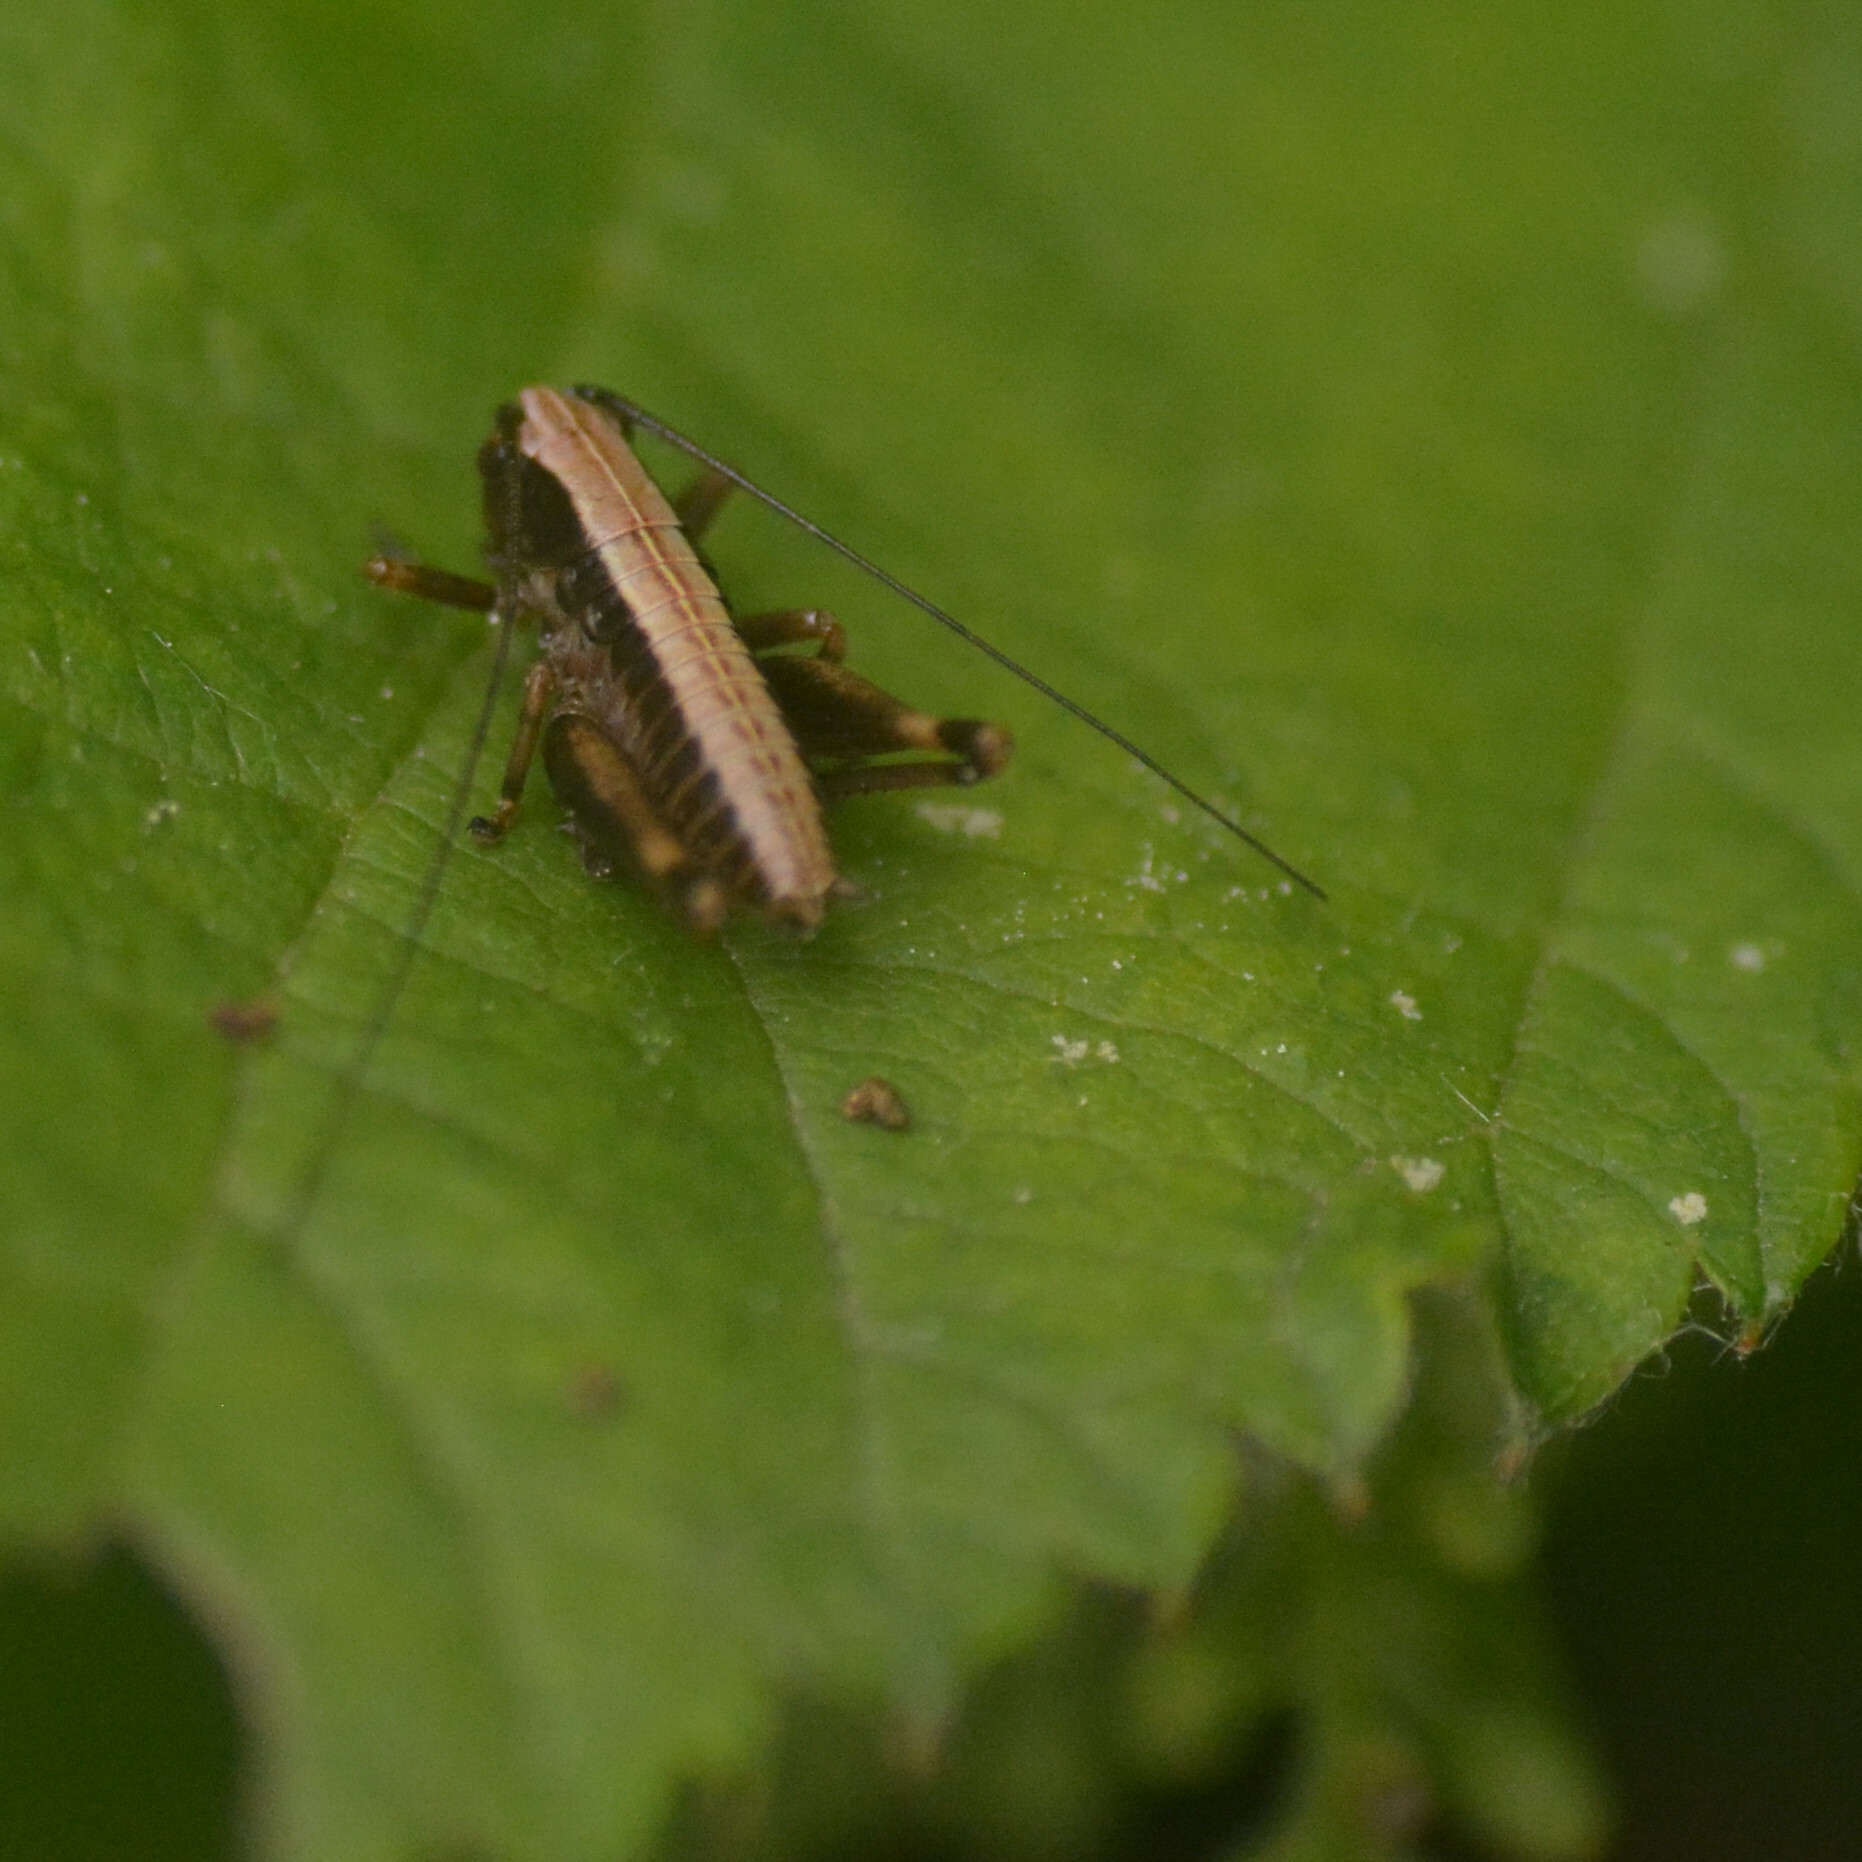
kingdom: Animalia
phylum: Arthropoda
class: Insecta
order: Orthoptera
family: Tettigoniidae
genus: Pholidoptera
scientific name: Pholidoptera griseoaptera
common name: Dark bush-cricket
